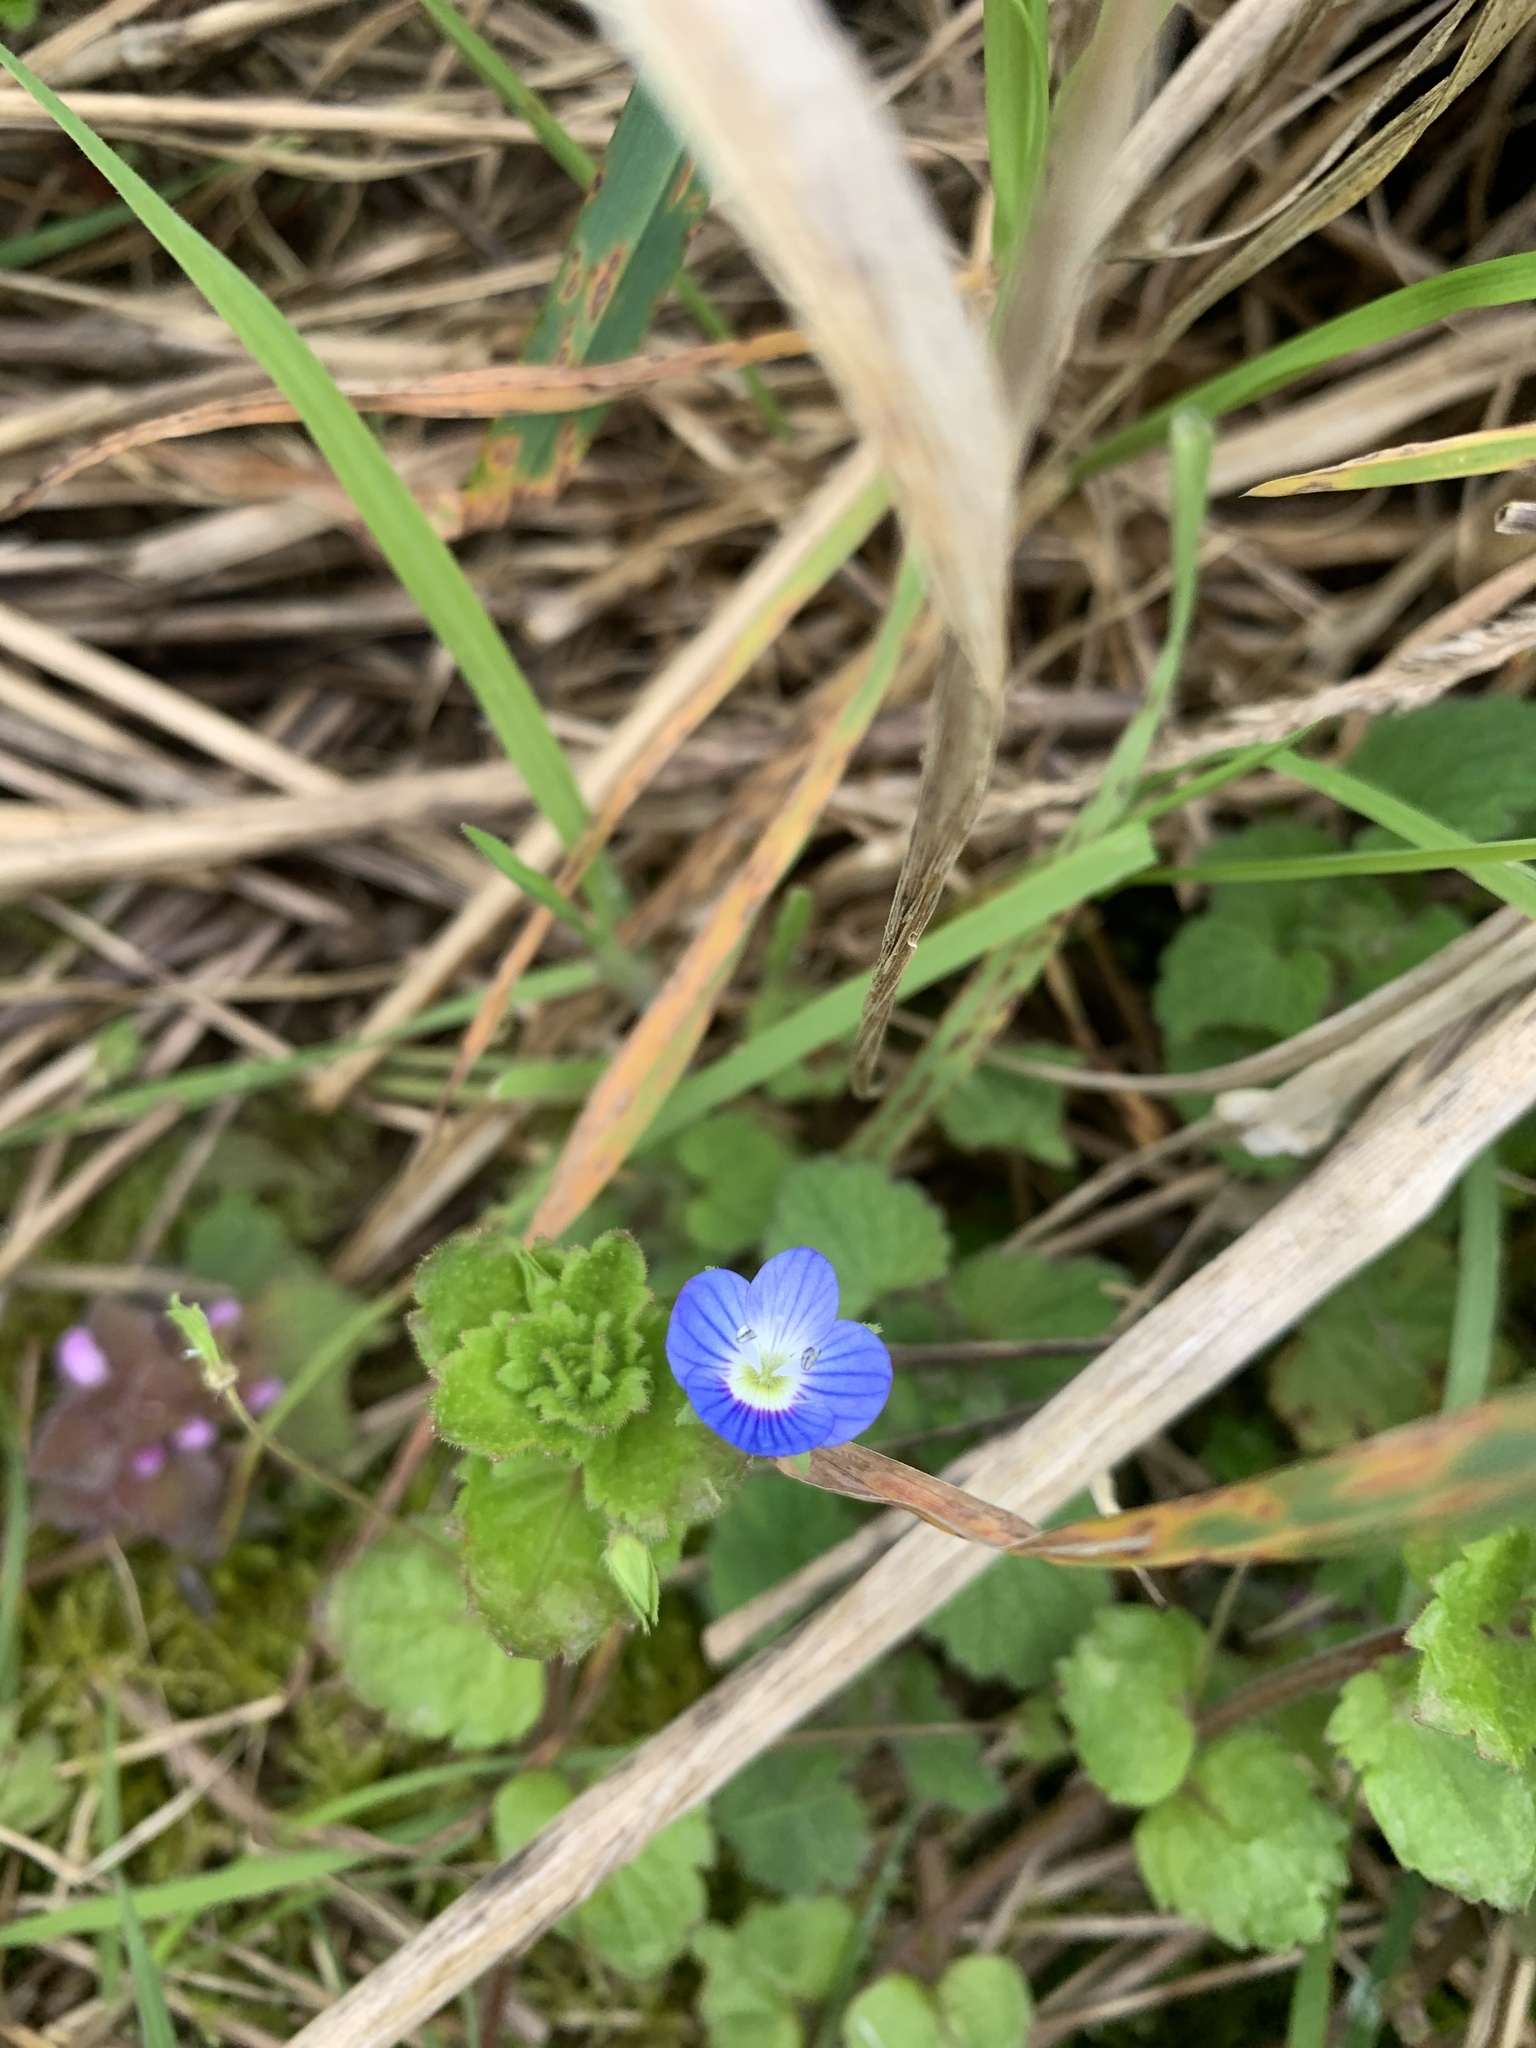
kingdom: Plantae
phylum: Tracheophyta
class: Magnoliopsida
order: Lamiales
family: Plantaginaceae
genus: Veronica
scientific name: Veronica persica
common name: Common field-speedwell
